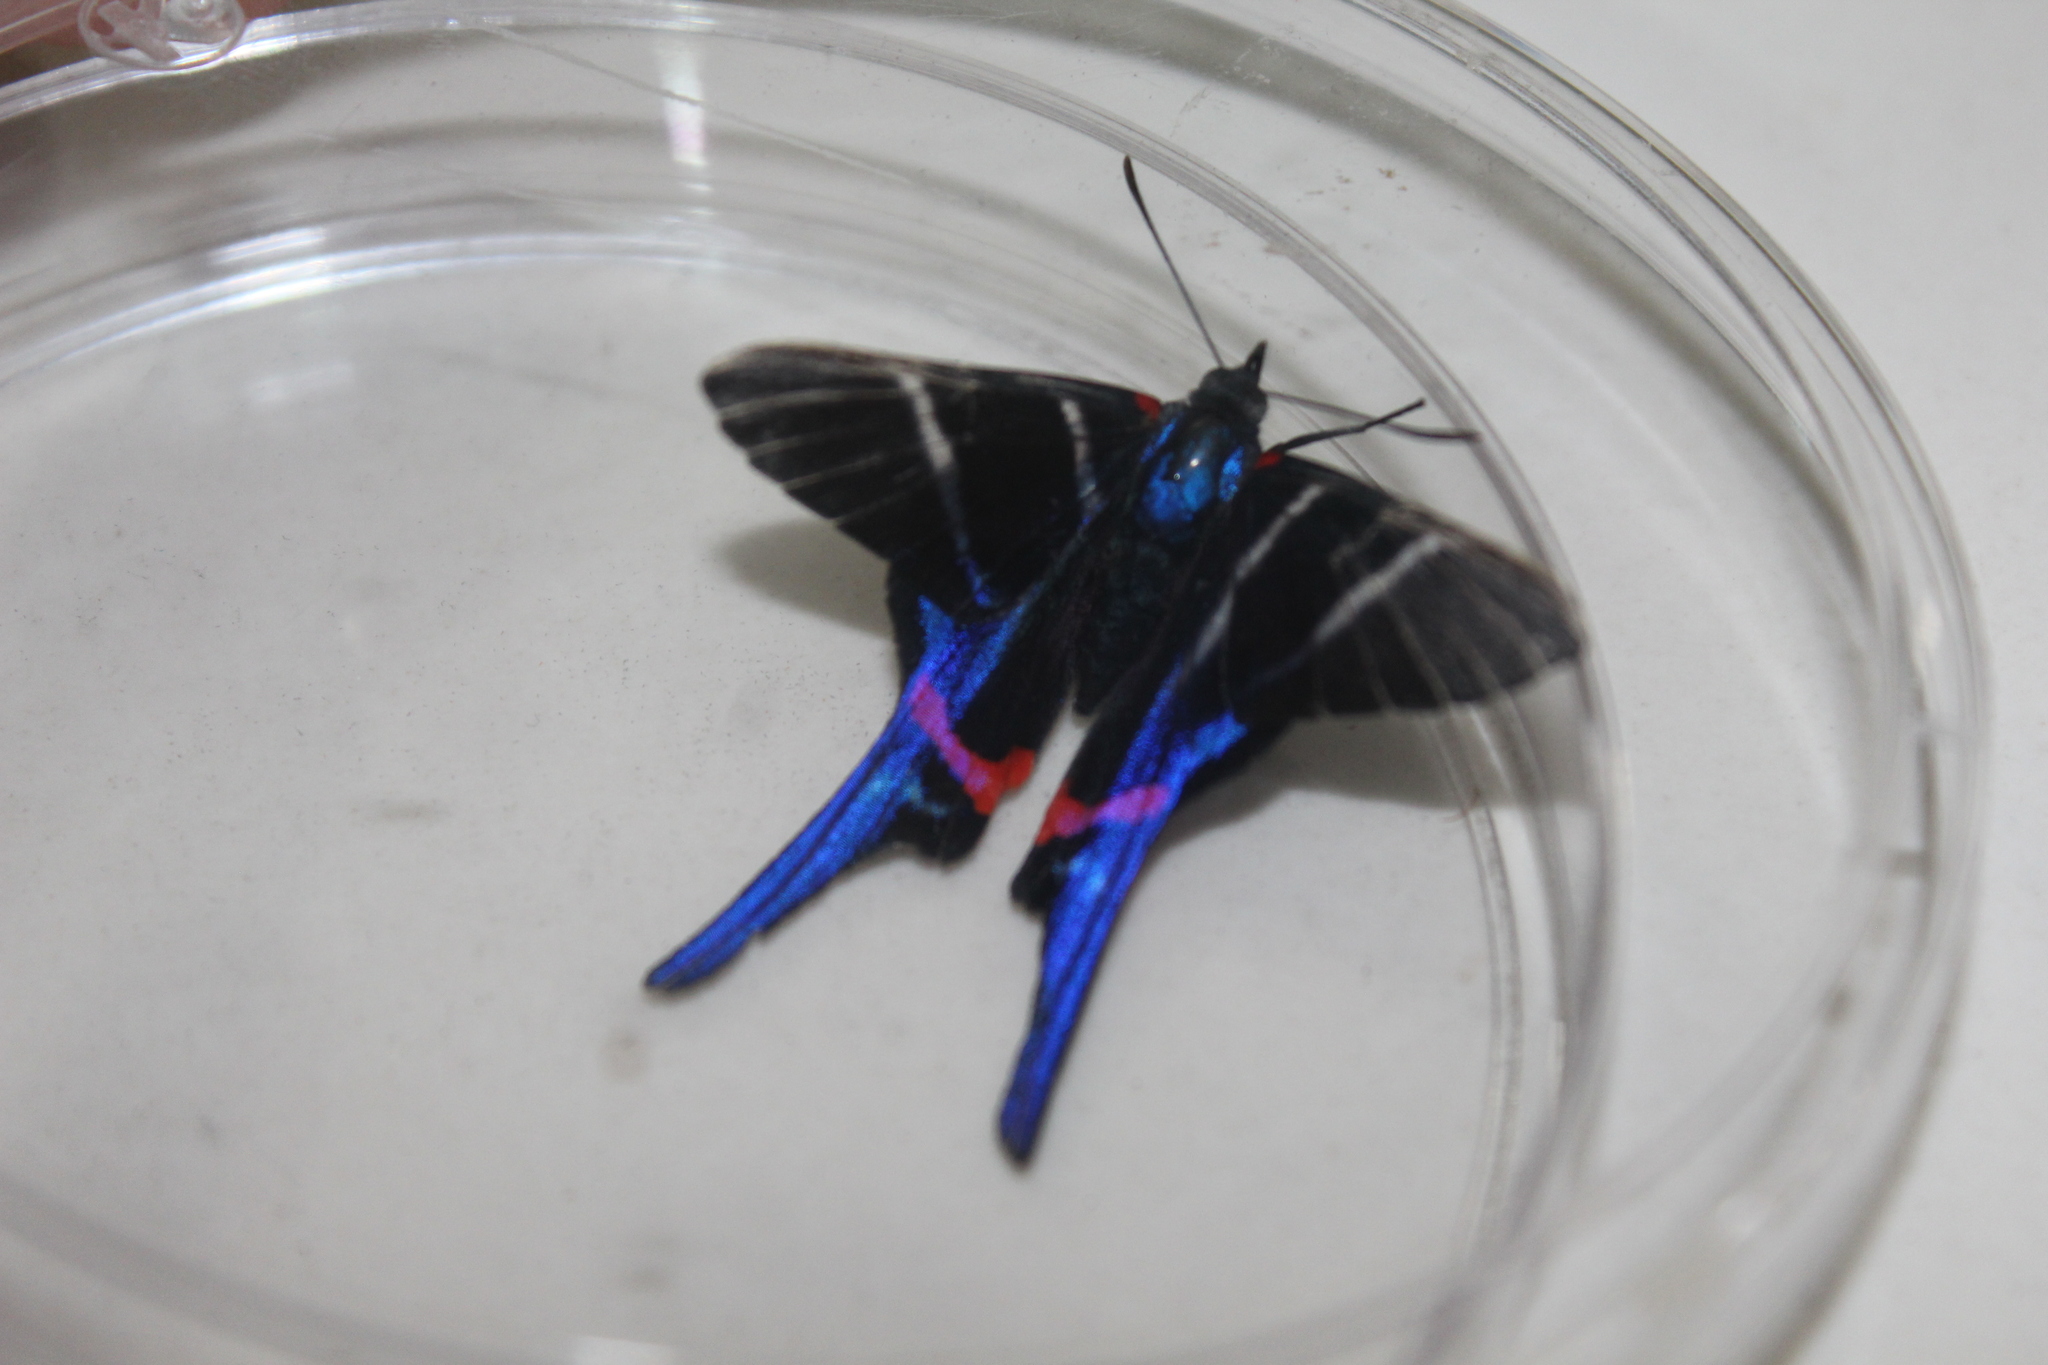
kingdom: Animalia
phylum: Arthropoda
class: Insecta
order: Lepidoptera
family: Riodinidae
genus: Rhetus
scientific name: Rhetus arcius
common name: Long-tailed metalmark
